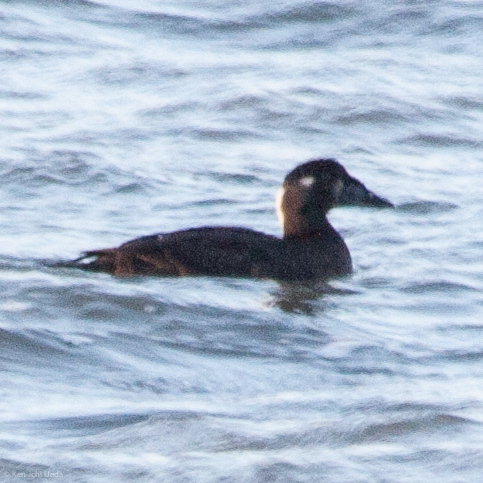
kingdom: Animalia
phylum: Chordata
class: Aves
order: Anseriformes
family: Anatidae
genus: Melanitta
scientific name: Melanitta perspicillata
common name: Surf scoter
